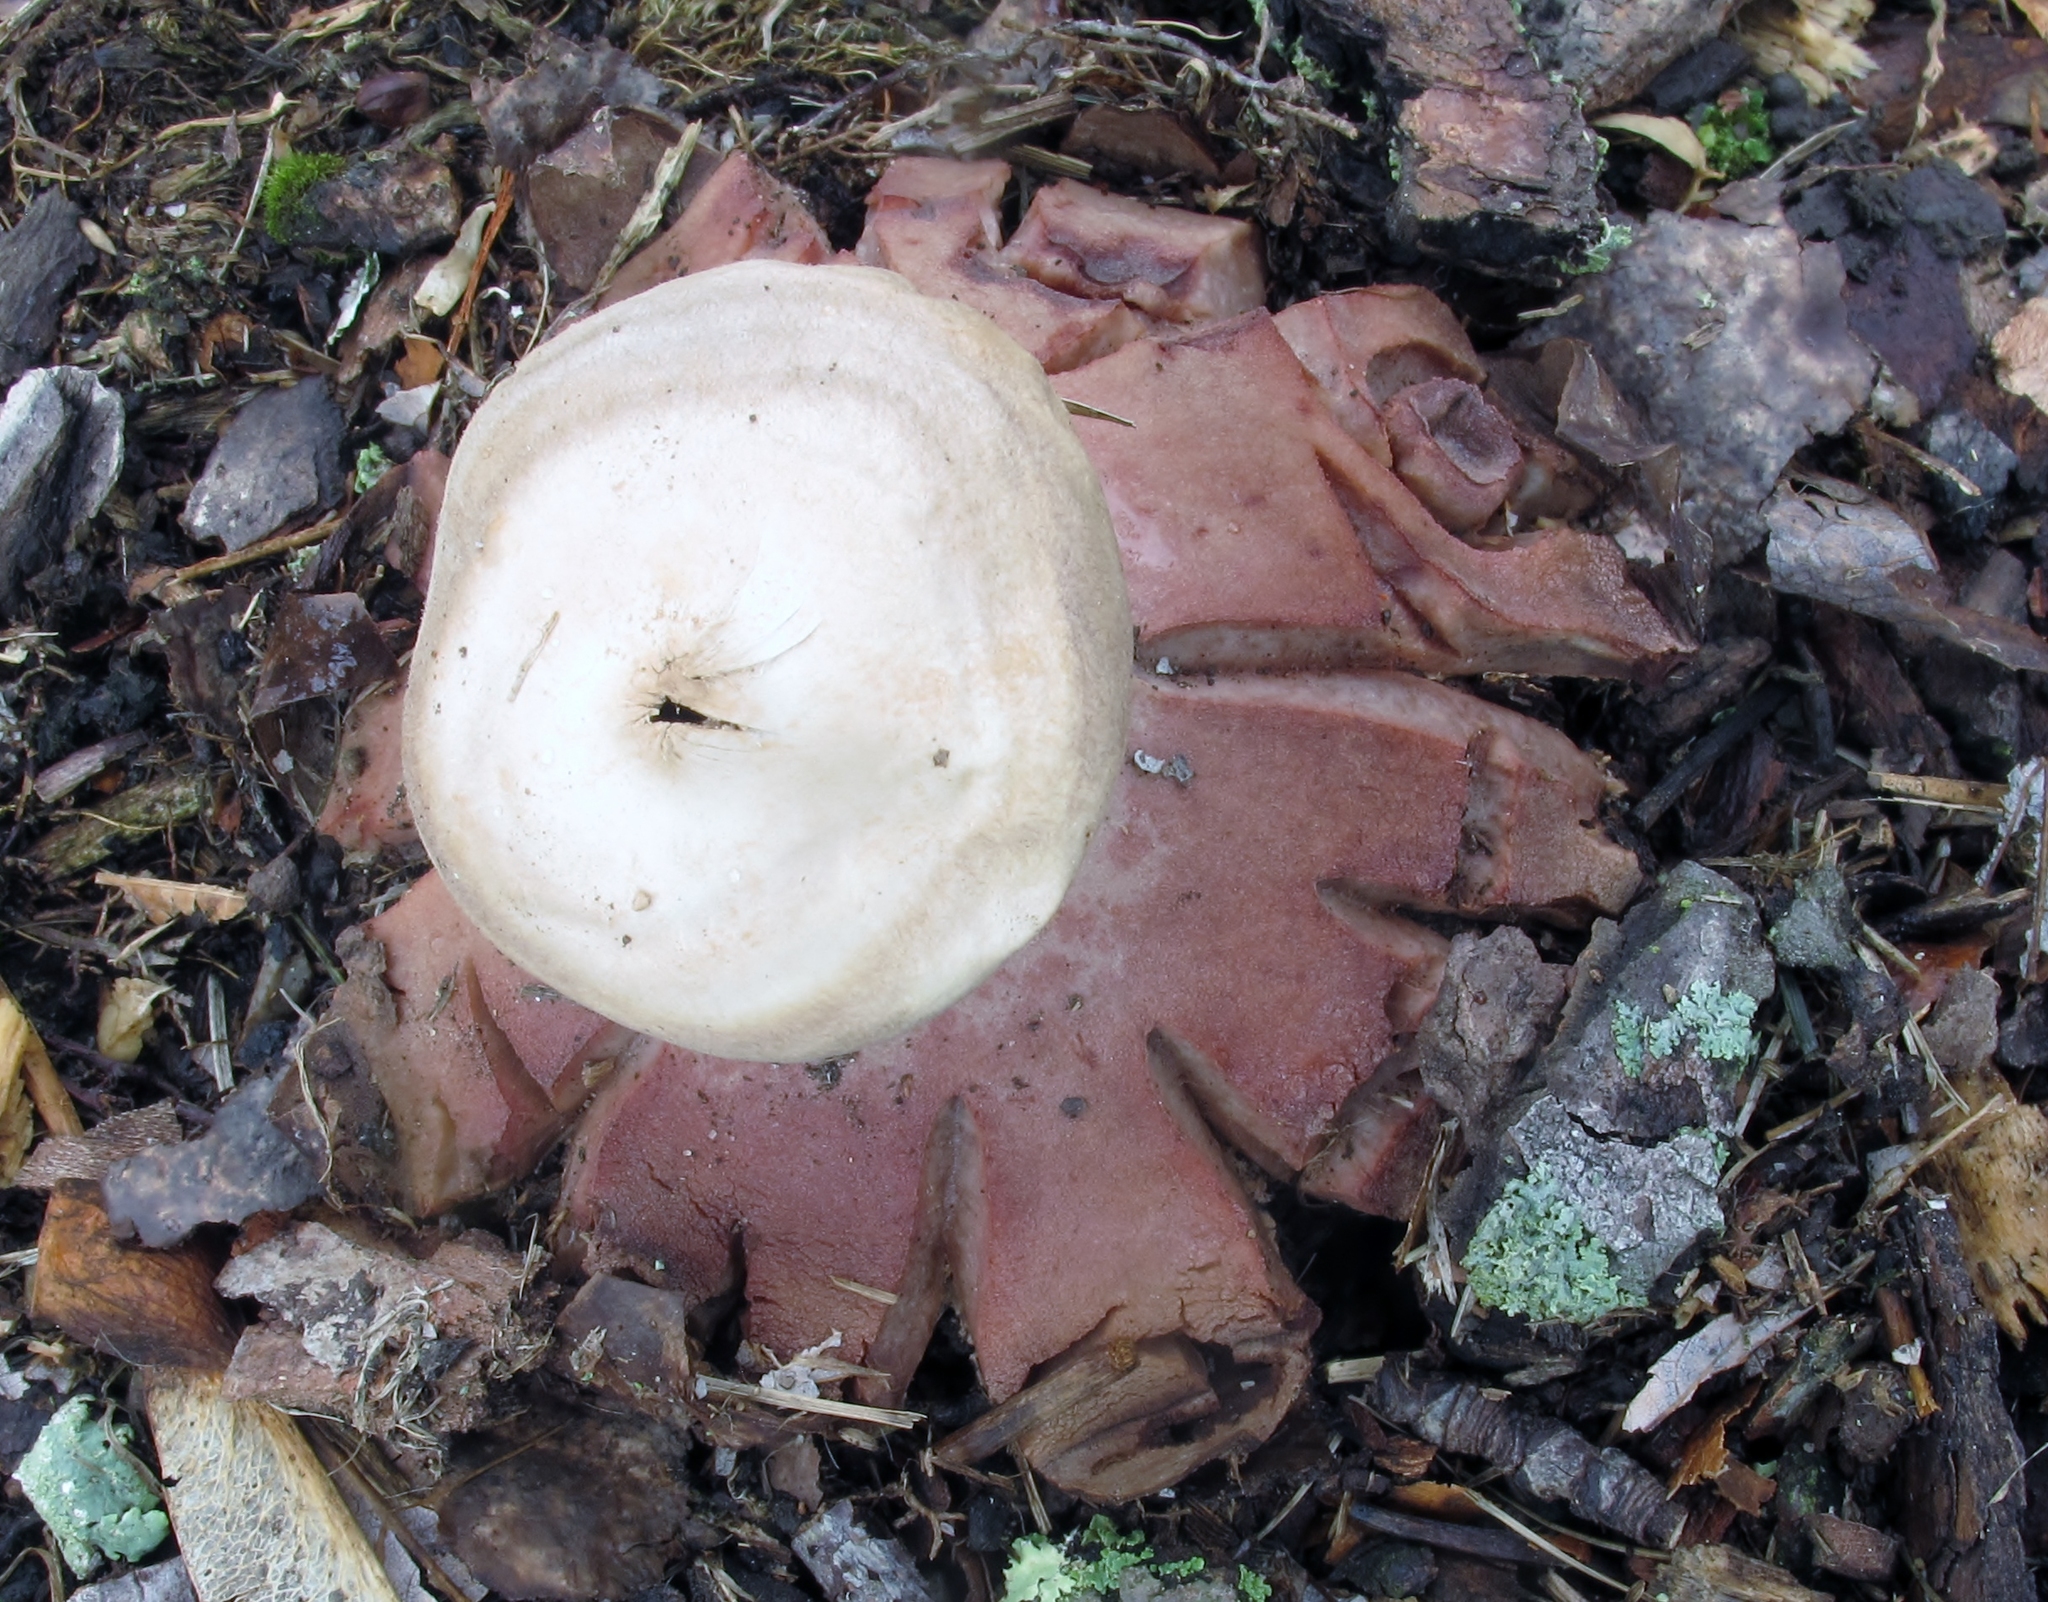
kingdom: Fungi
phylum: Basidiomycota
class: Agaricomycetes
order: Geastrales
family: Geastraceae
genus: Geastrum
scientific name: Geastrum rufescens
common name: Rosy earthstar
